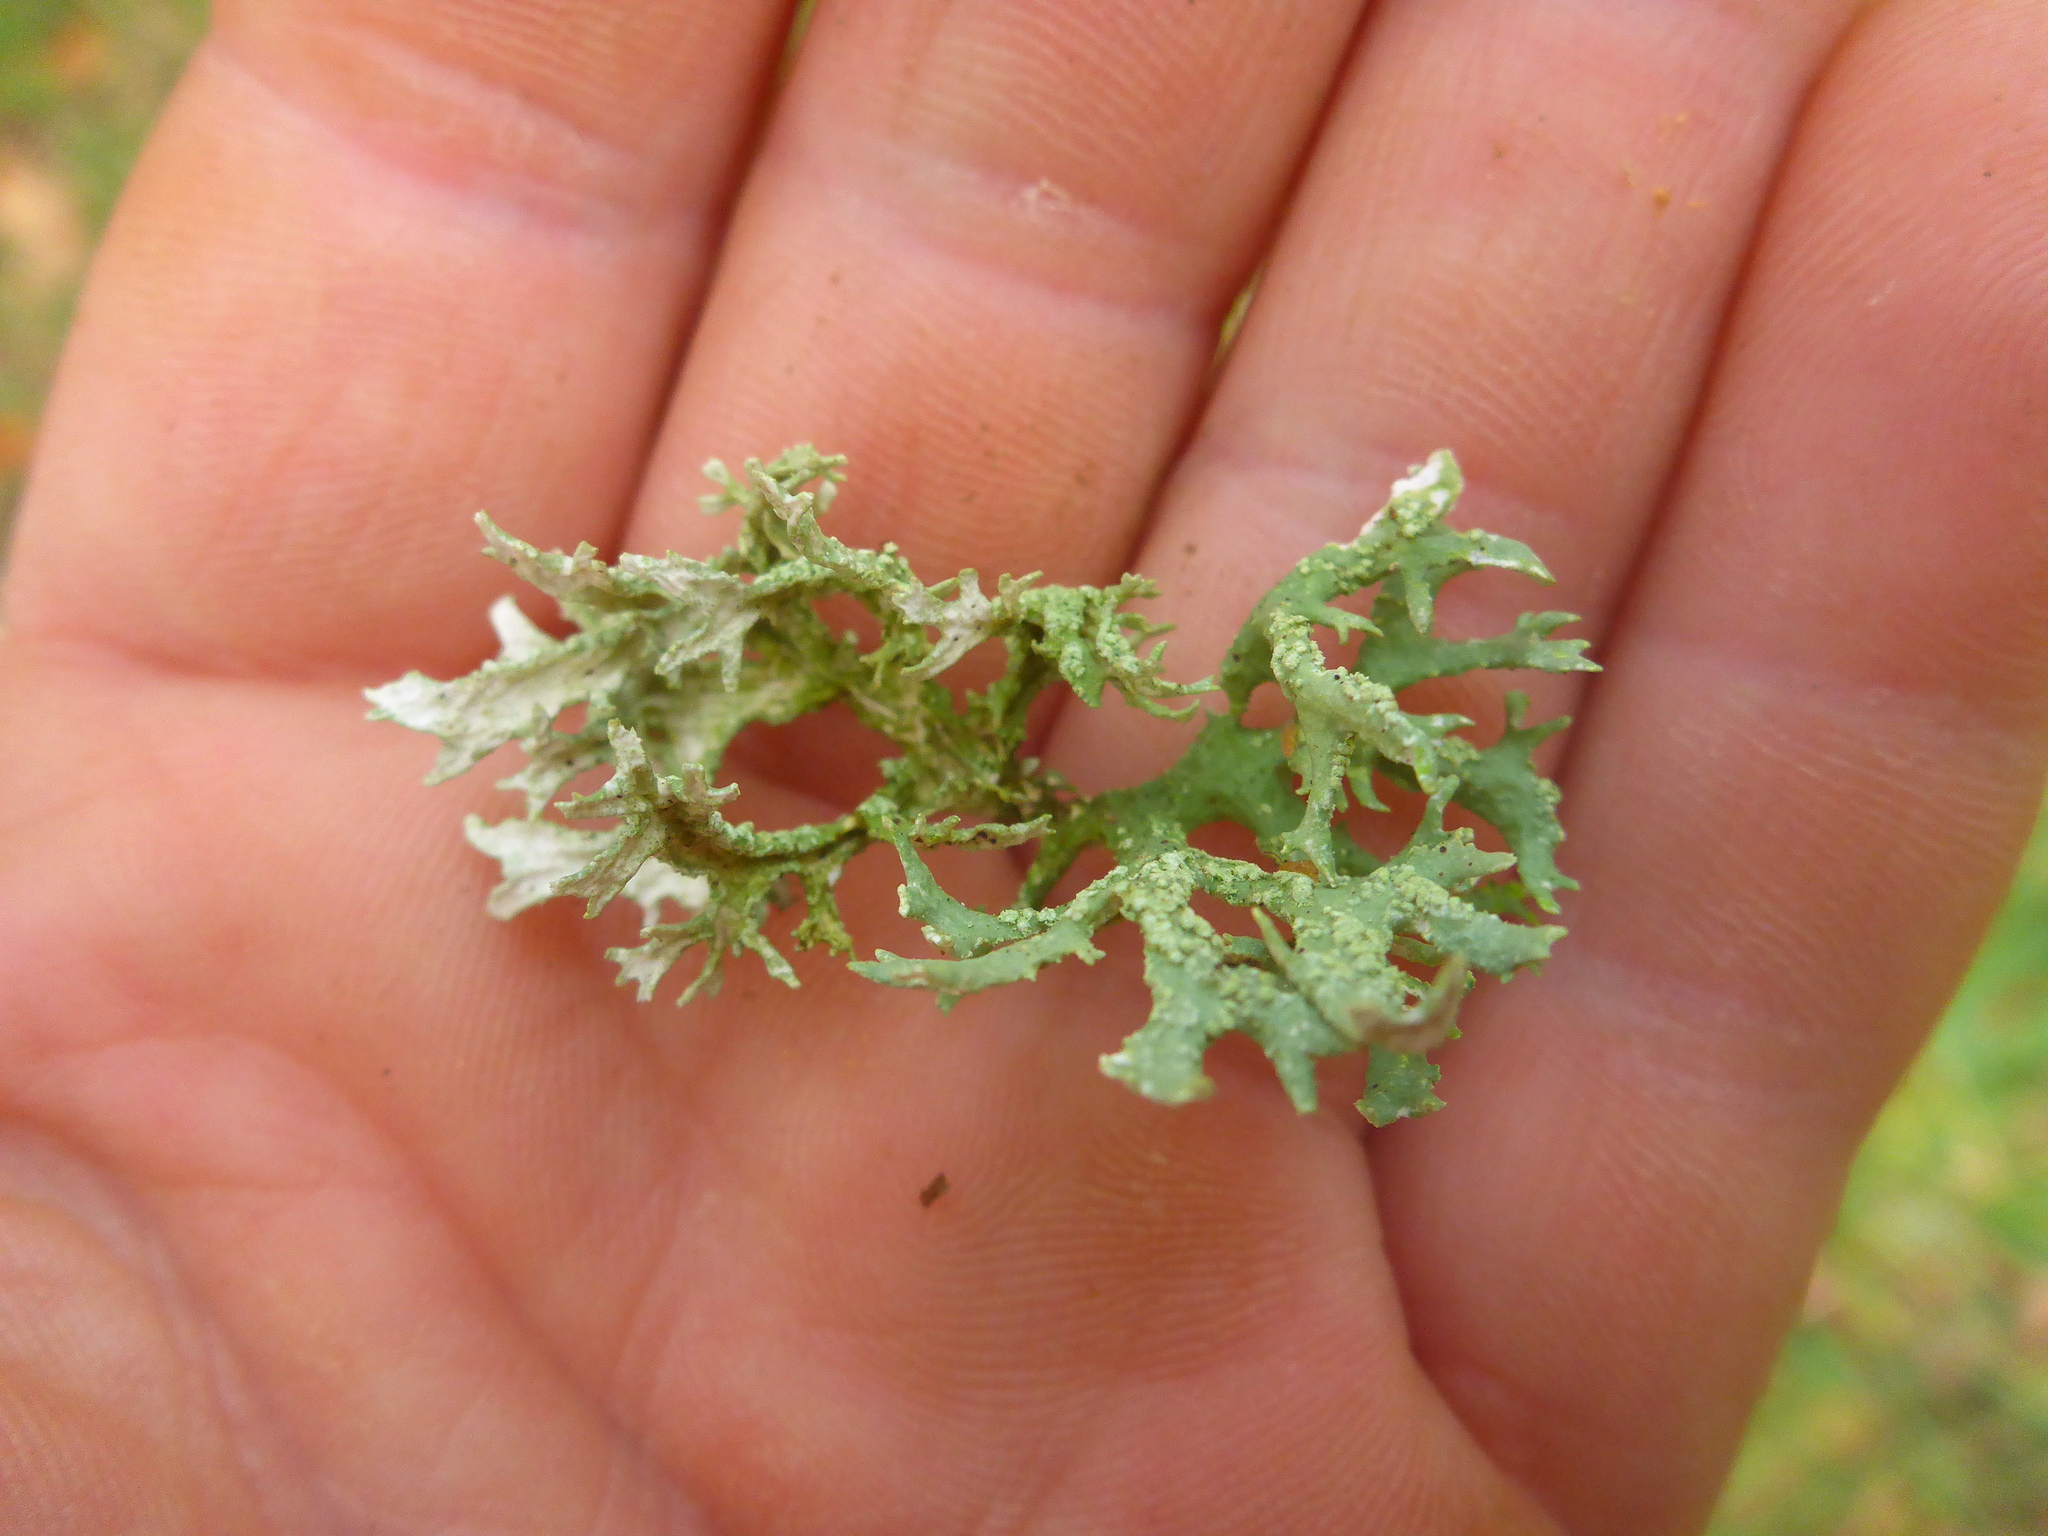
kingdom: Fungi
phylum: Ascomycota
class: Lecanoromycetes
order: Lecanorales
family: Parmeliaceae
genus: Evernia
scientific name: Evernia prunastri
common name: Oak moss
